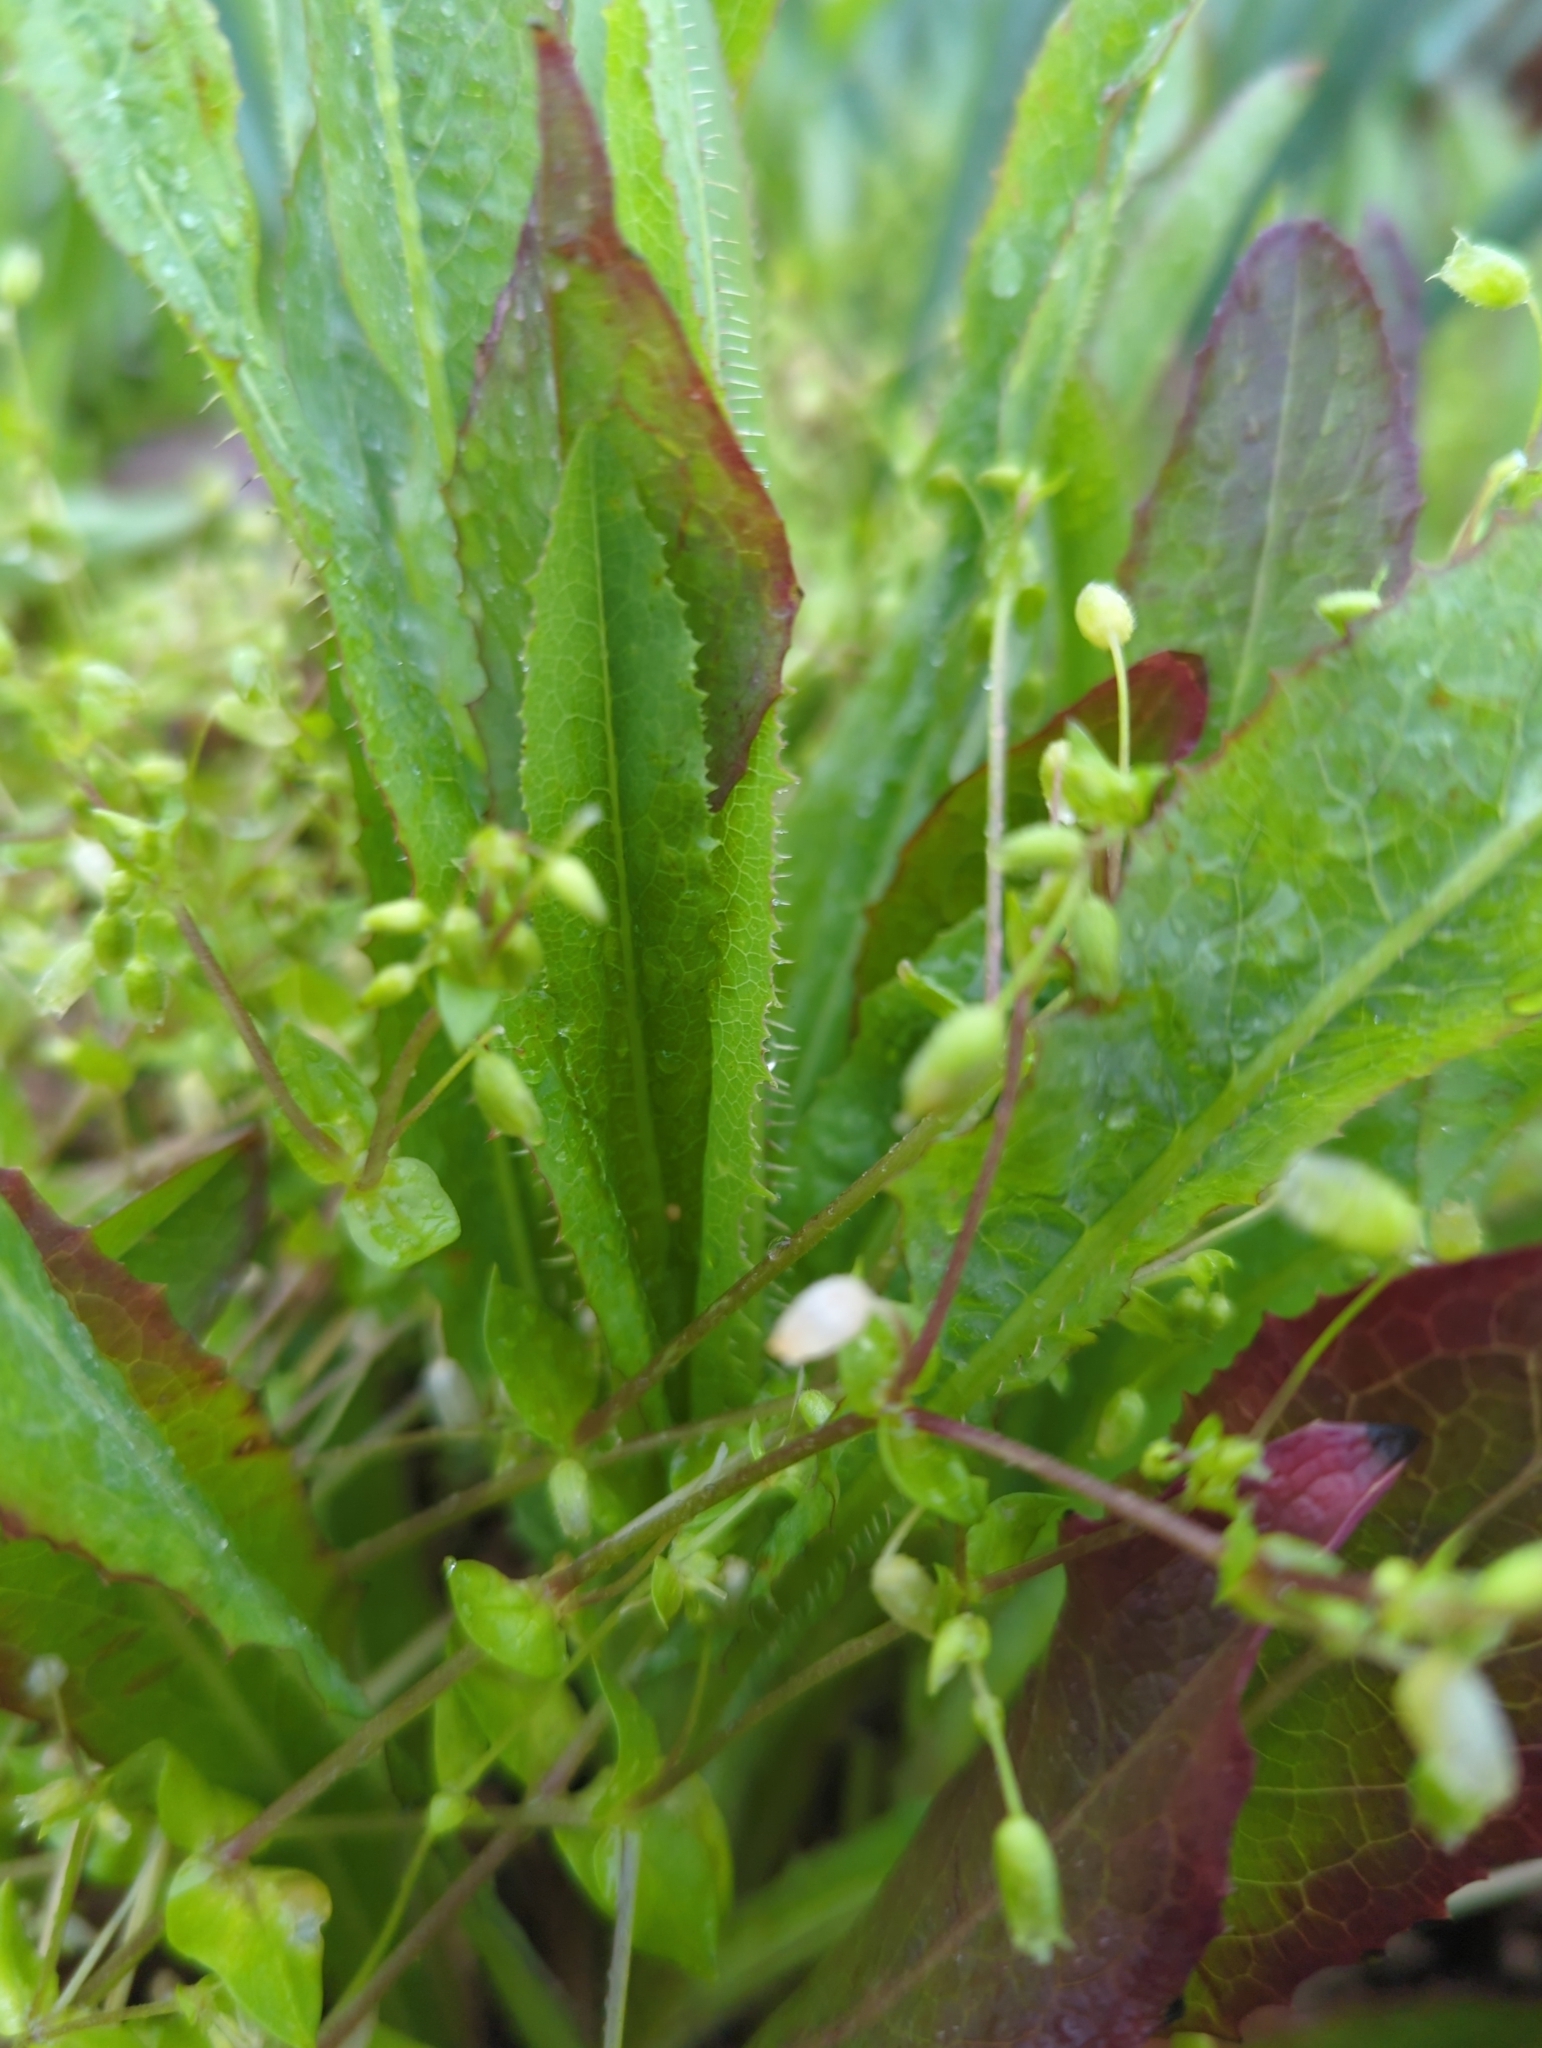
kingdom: Plantae
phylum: Tracheophyta
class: Magnoliopsida
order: Asterales
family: Asteraceae
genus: Lactuca
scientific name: Lactuca serriola
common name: Prickly lettuce
